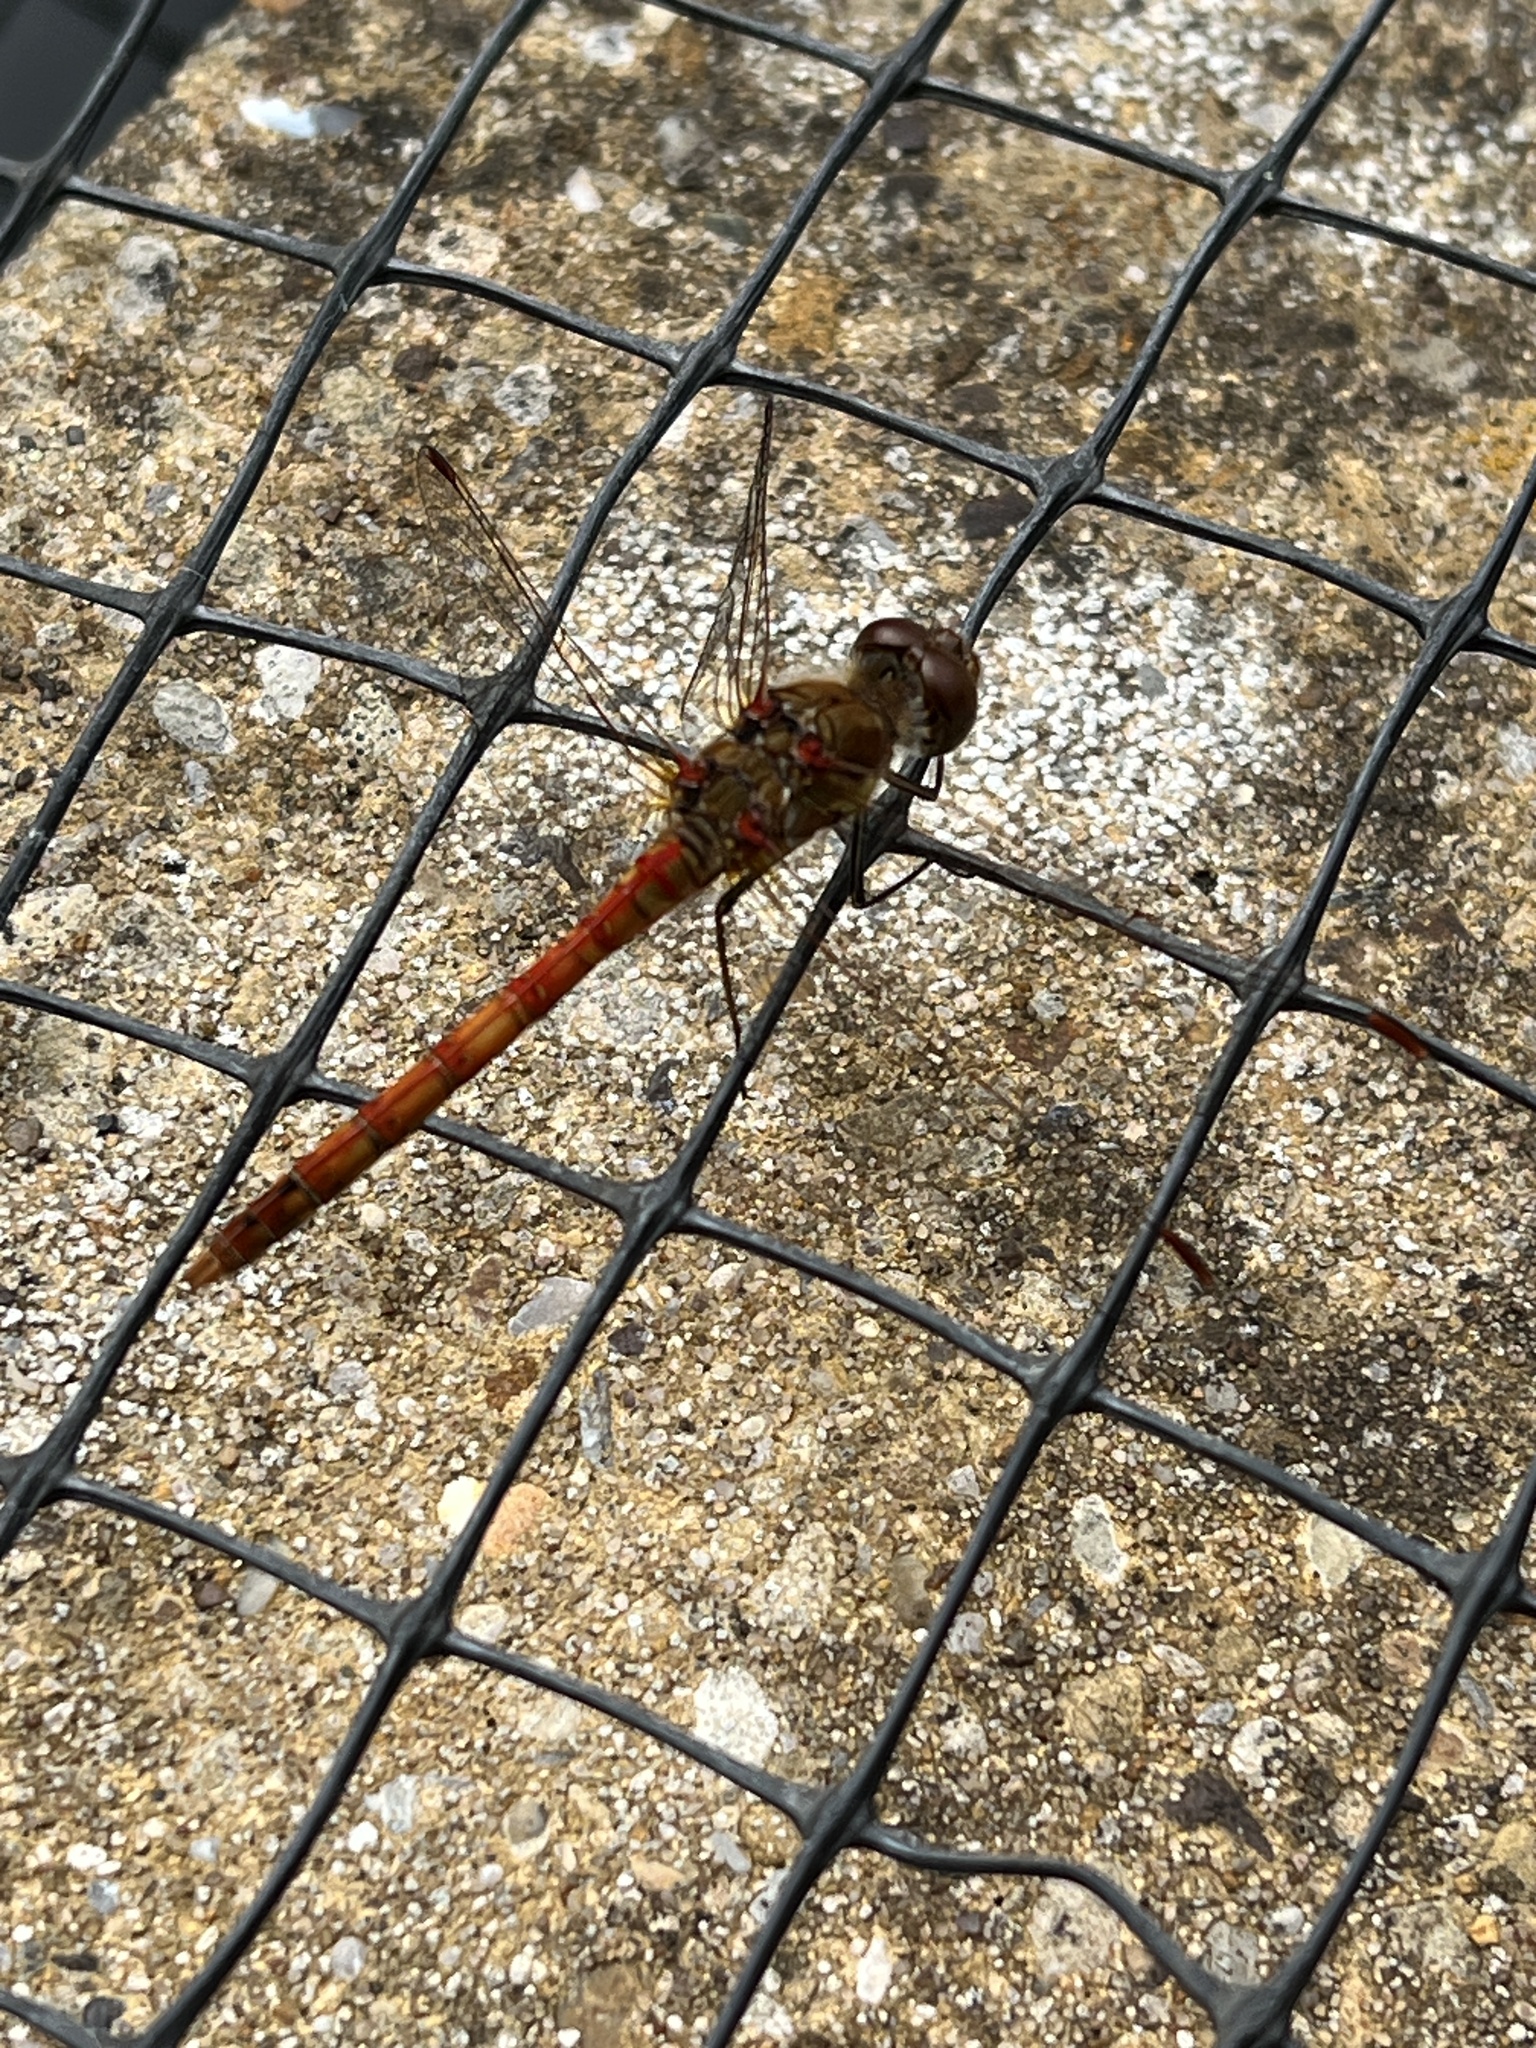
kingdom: Animalia
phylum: Arthropoda
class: Insecta
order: Odonata
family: Libellulidae
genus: Sympetrum
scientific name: Sympetrum striolatum
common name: Common darter
